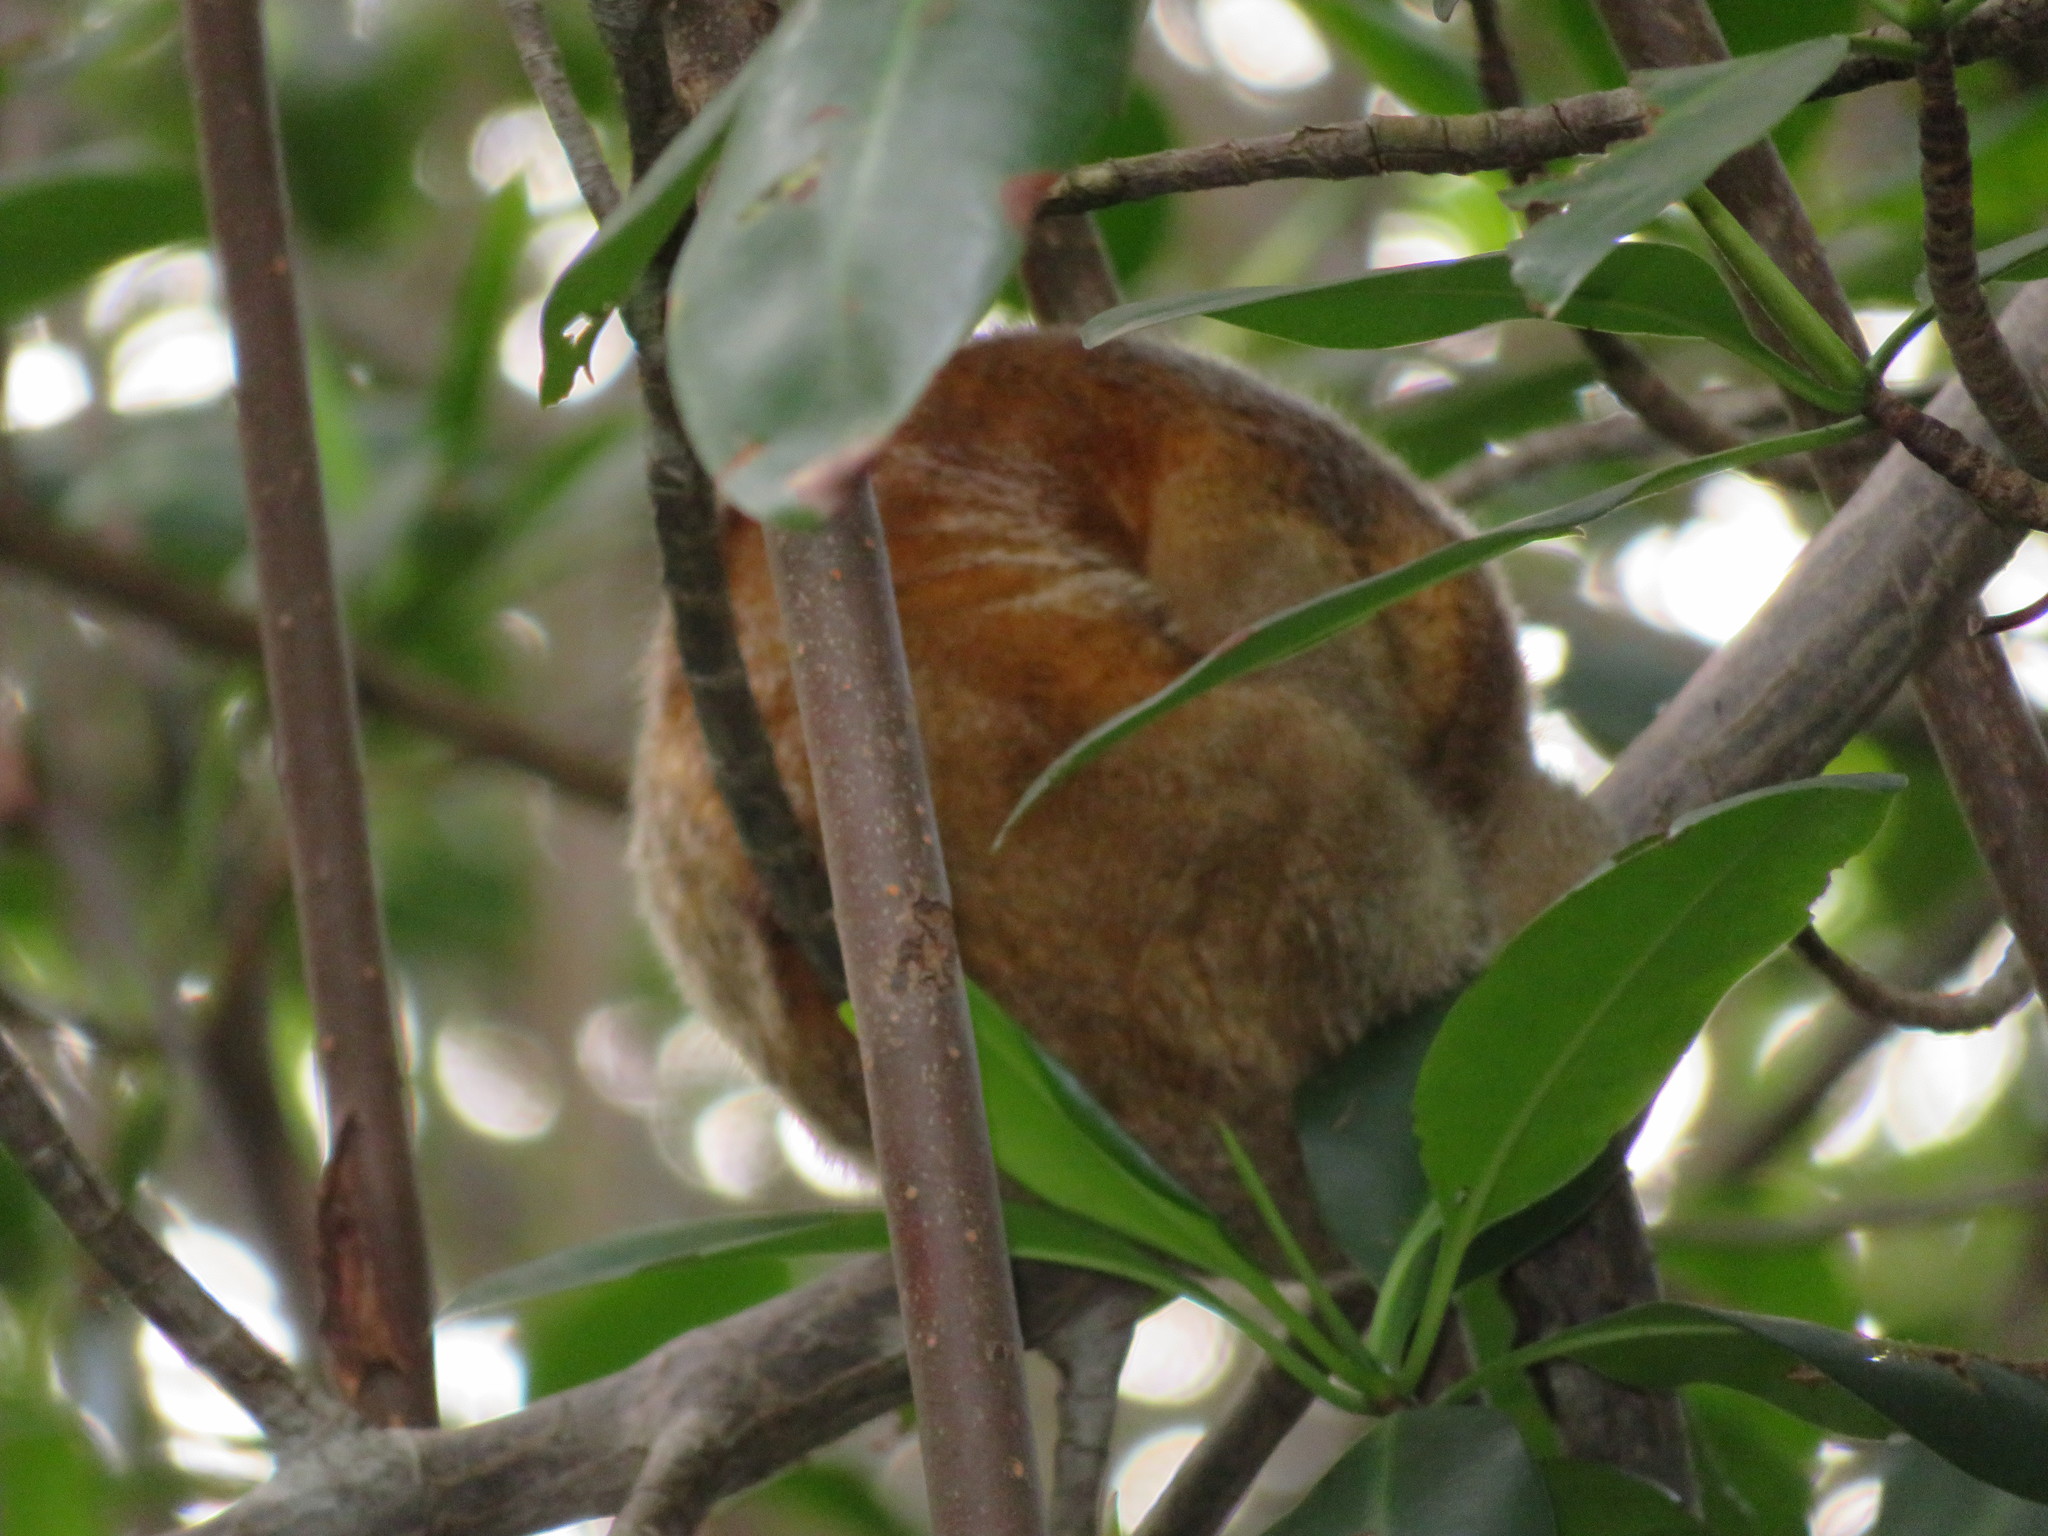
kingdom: Animalia
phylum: Chordata
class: Mammalia
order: Pilosa
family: Cyclopedidae
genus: Cyclopes
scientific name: Cyclopes didactylus
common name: Silky anteater
